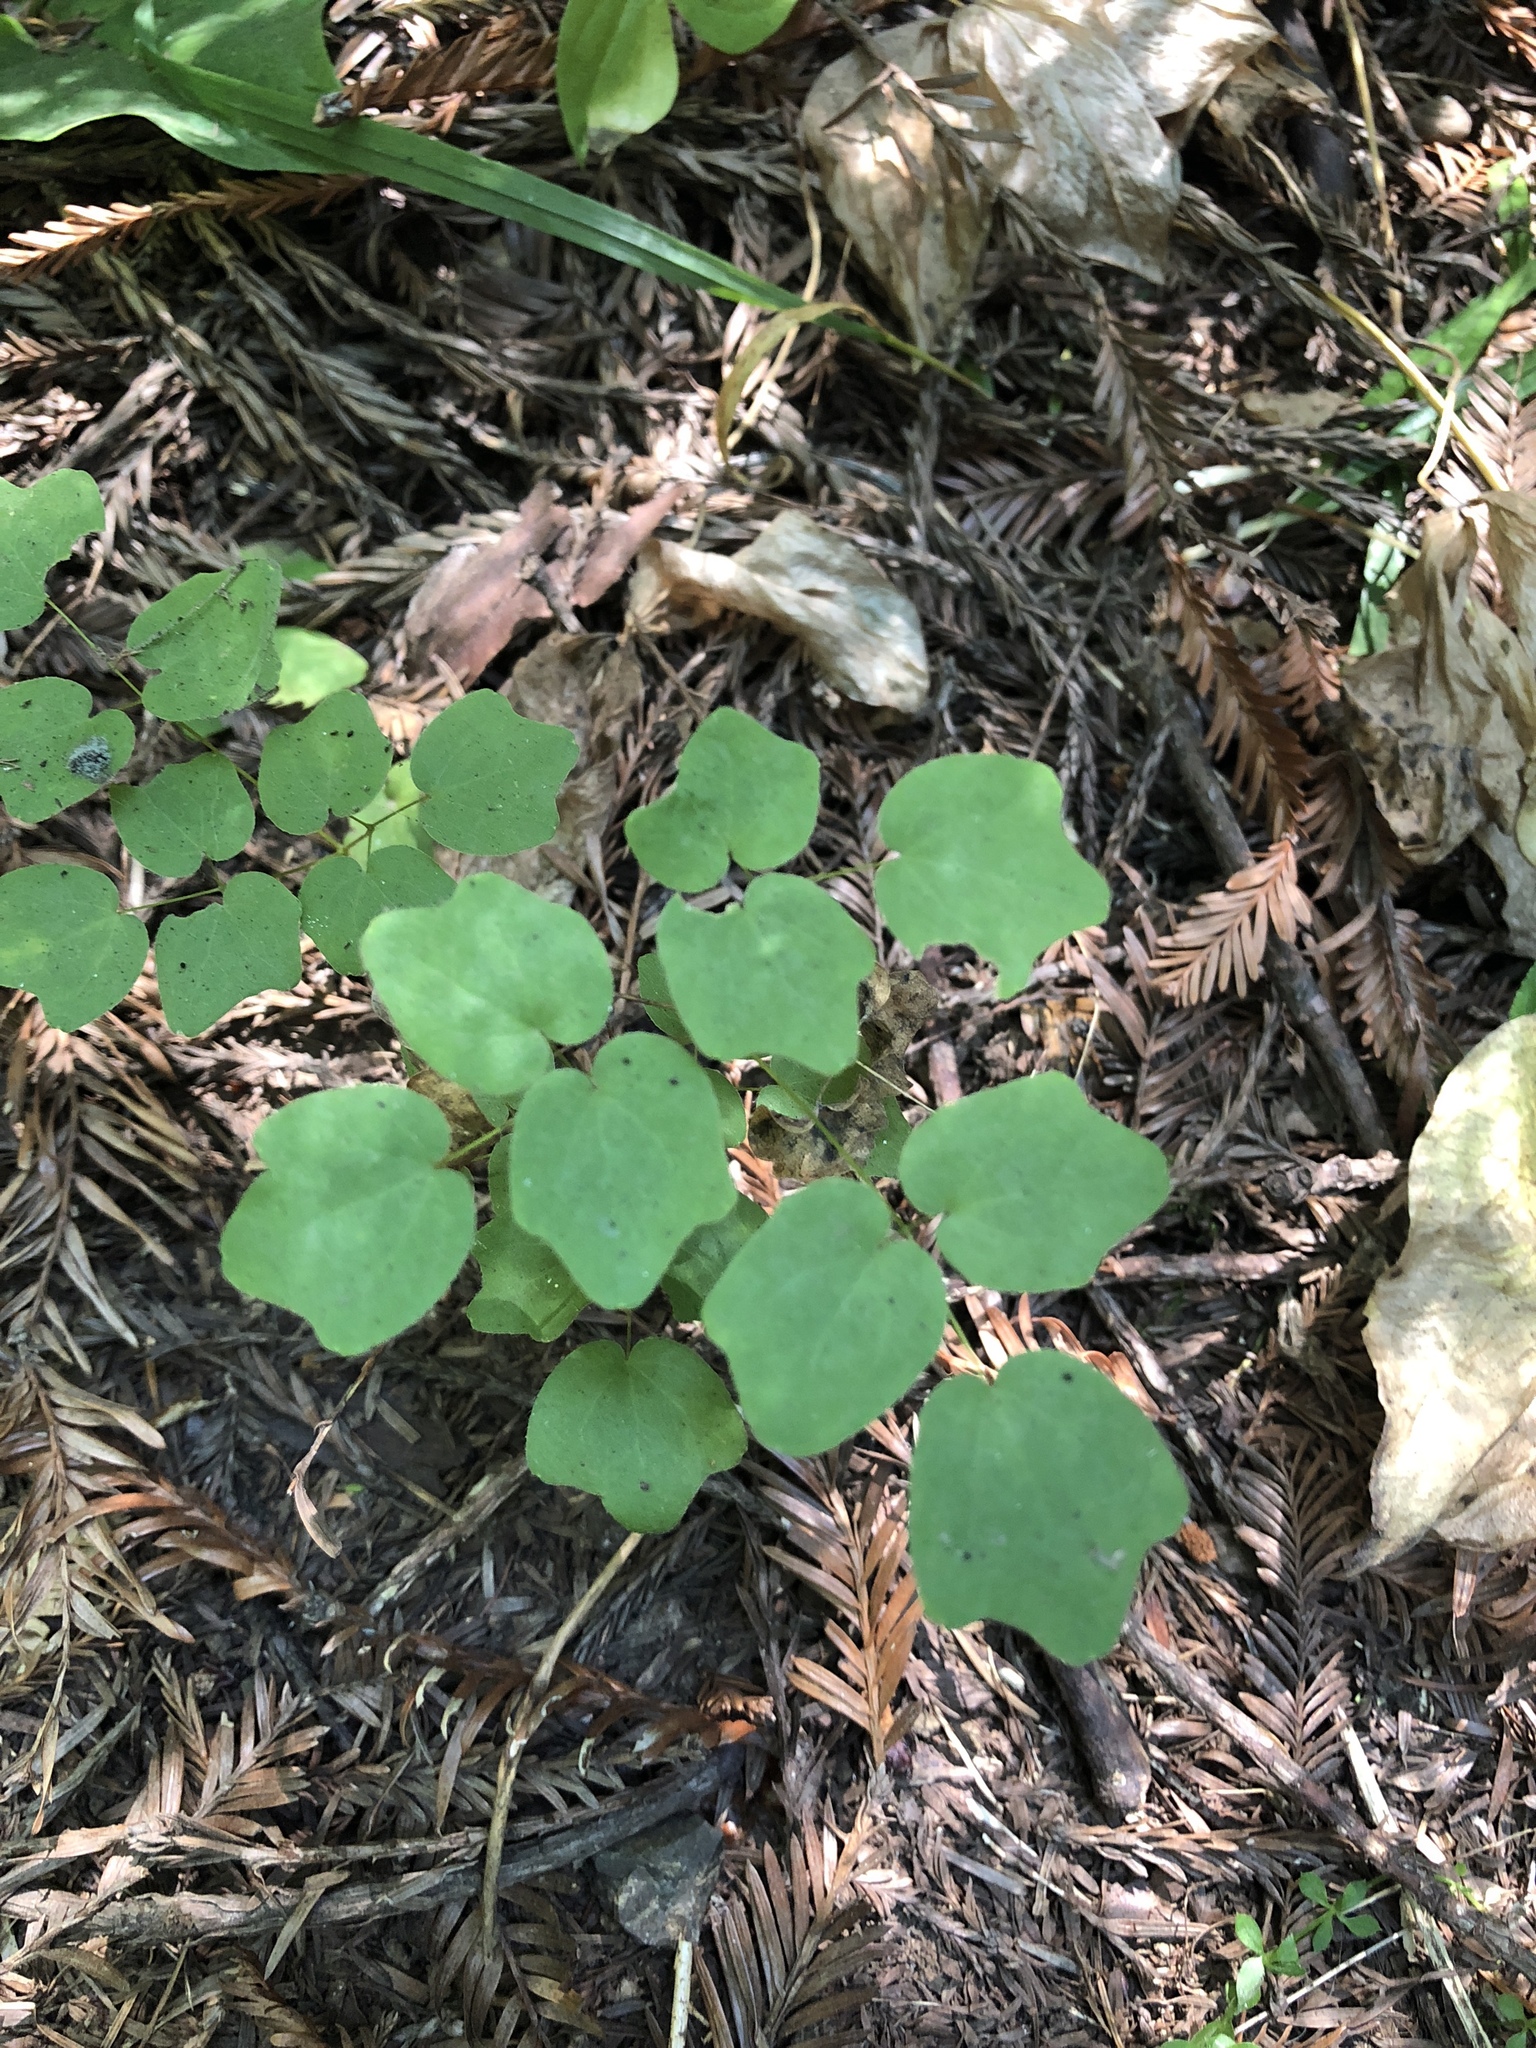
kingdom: Plantae
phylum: Tracheophyta
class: Magnoliopsida
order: Ranunculales
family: Berberidaceae
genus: Vancouveria
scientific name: Vancouveria planipetala
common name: Redwood-ivy
